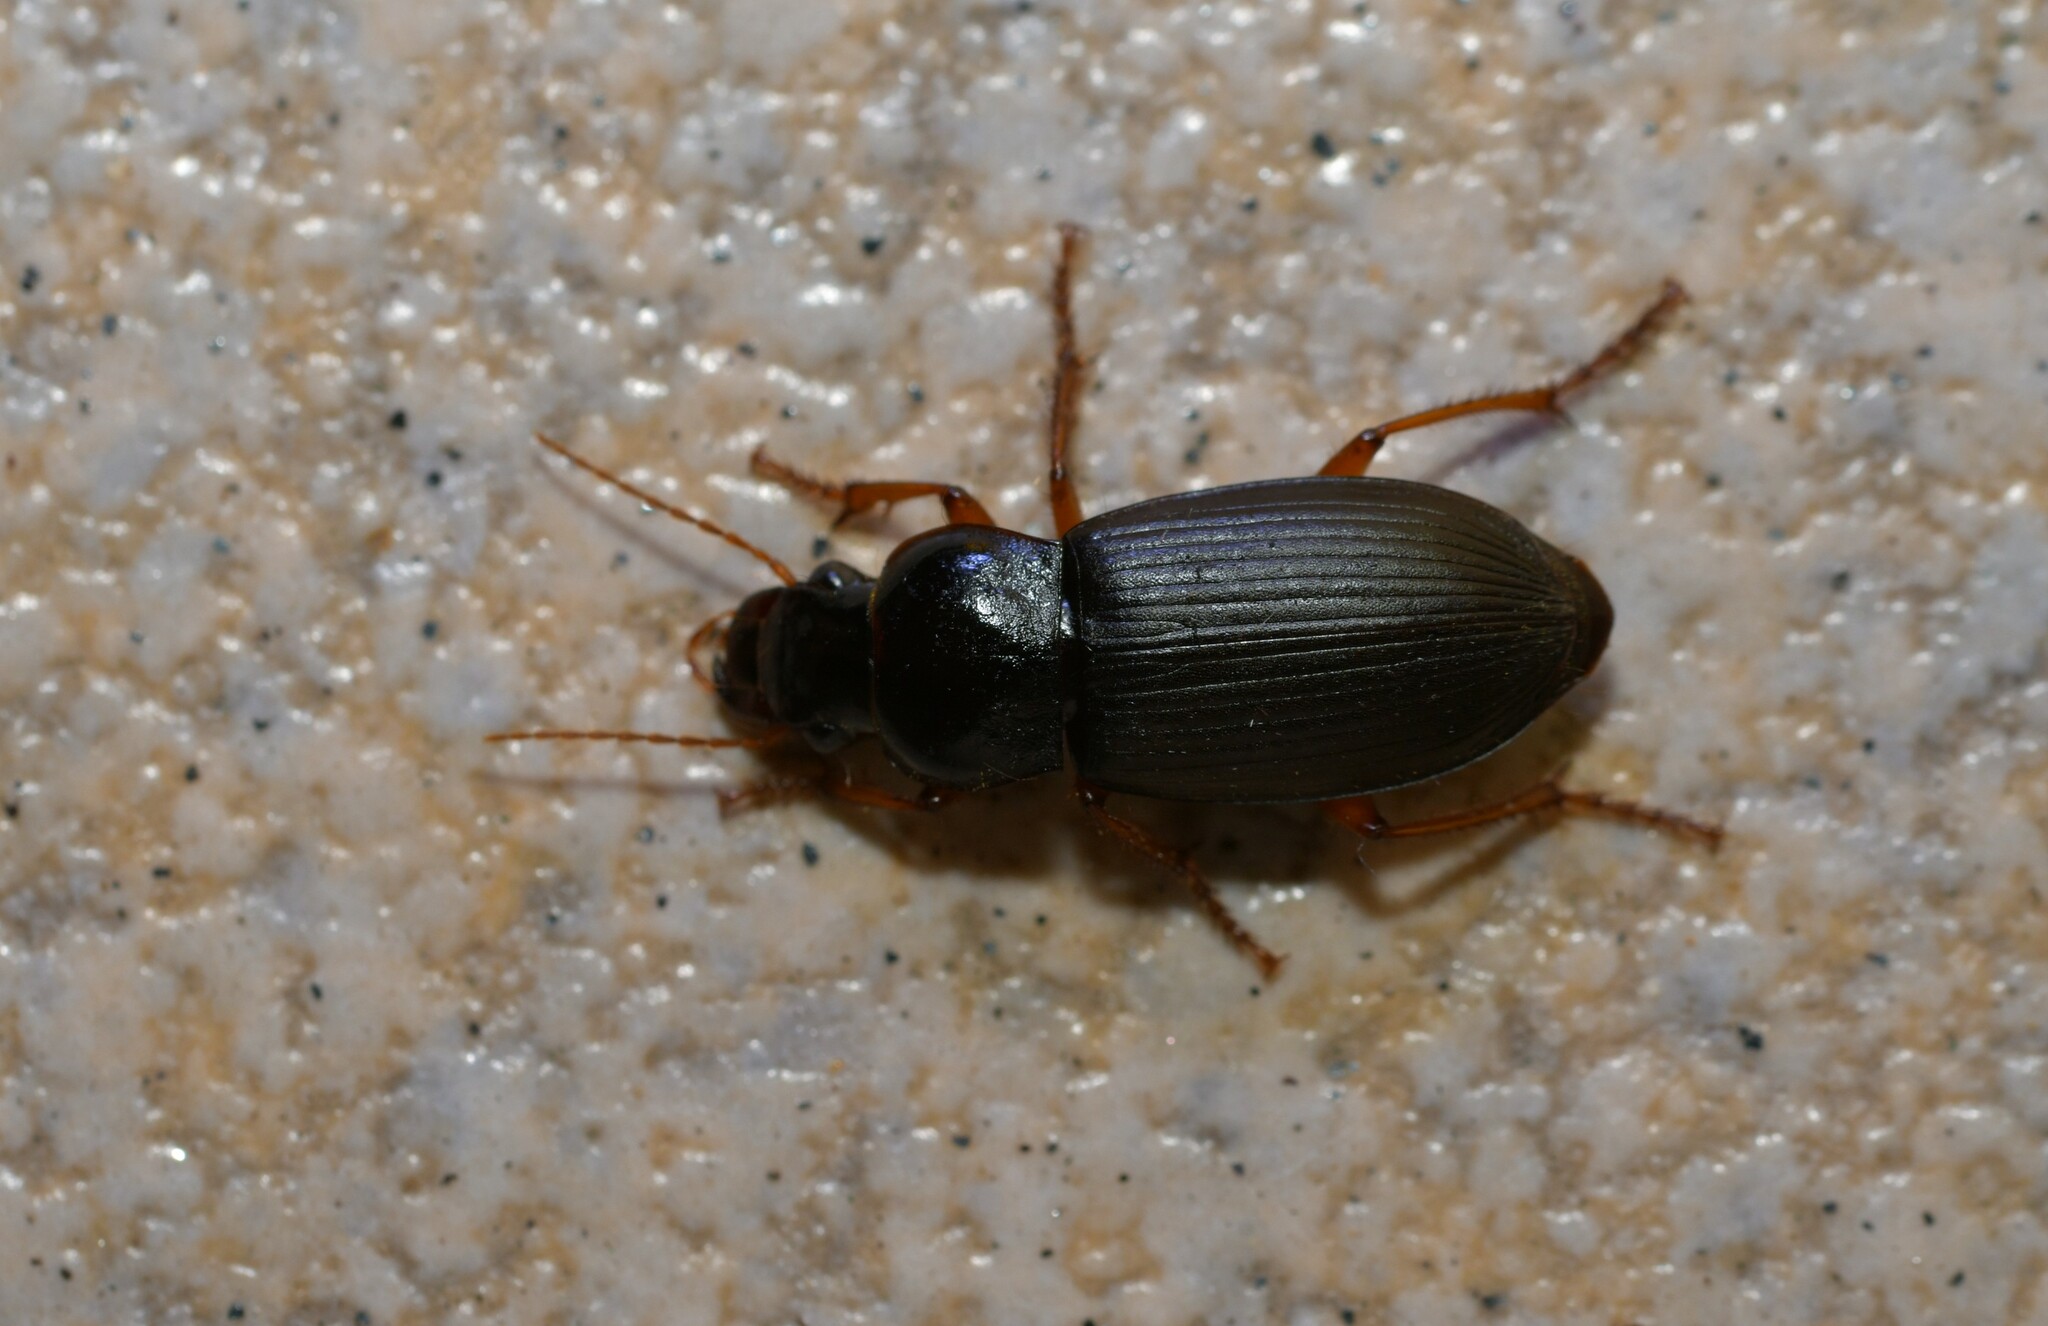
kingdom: Animalia
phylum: Arthropoda
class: Insecta
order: Coleoptera
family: Carabidae
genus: Harpalus
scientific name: Harpalus rufipes
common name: Strawberry harp ground beetle
